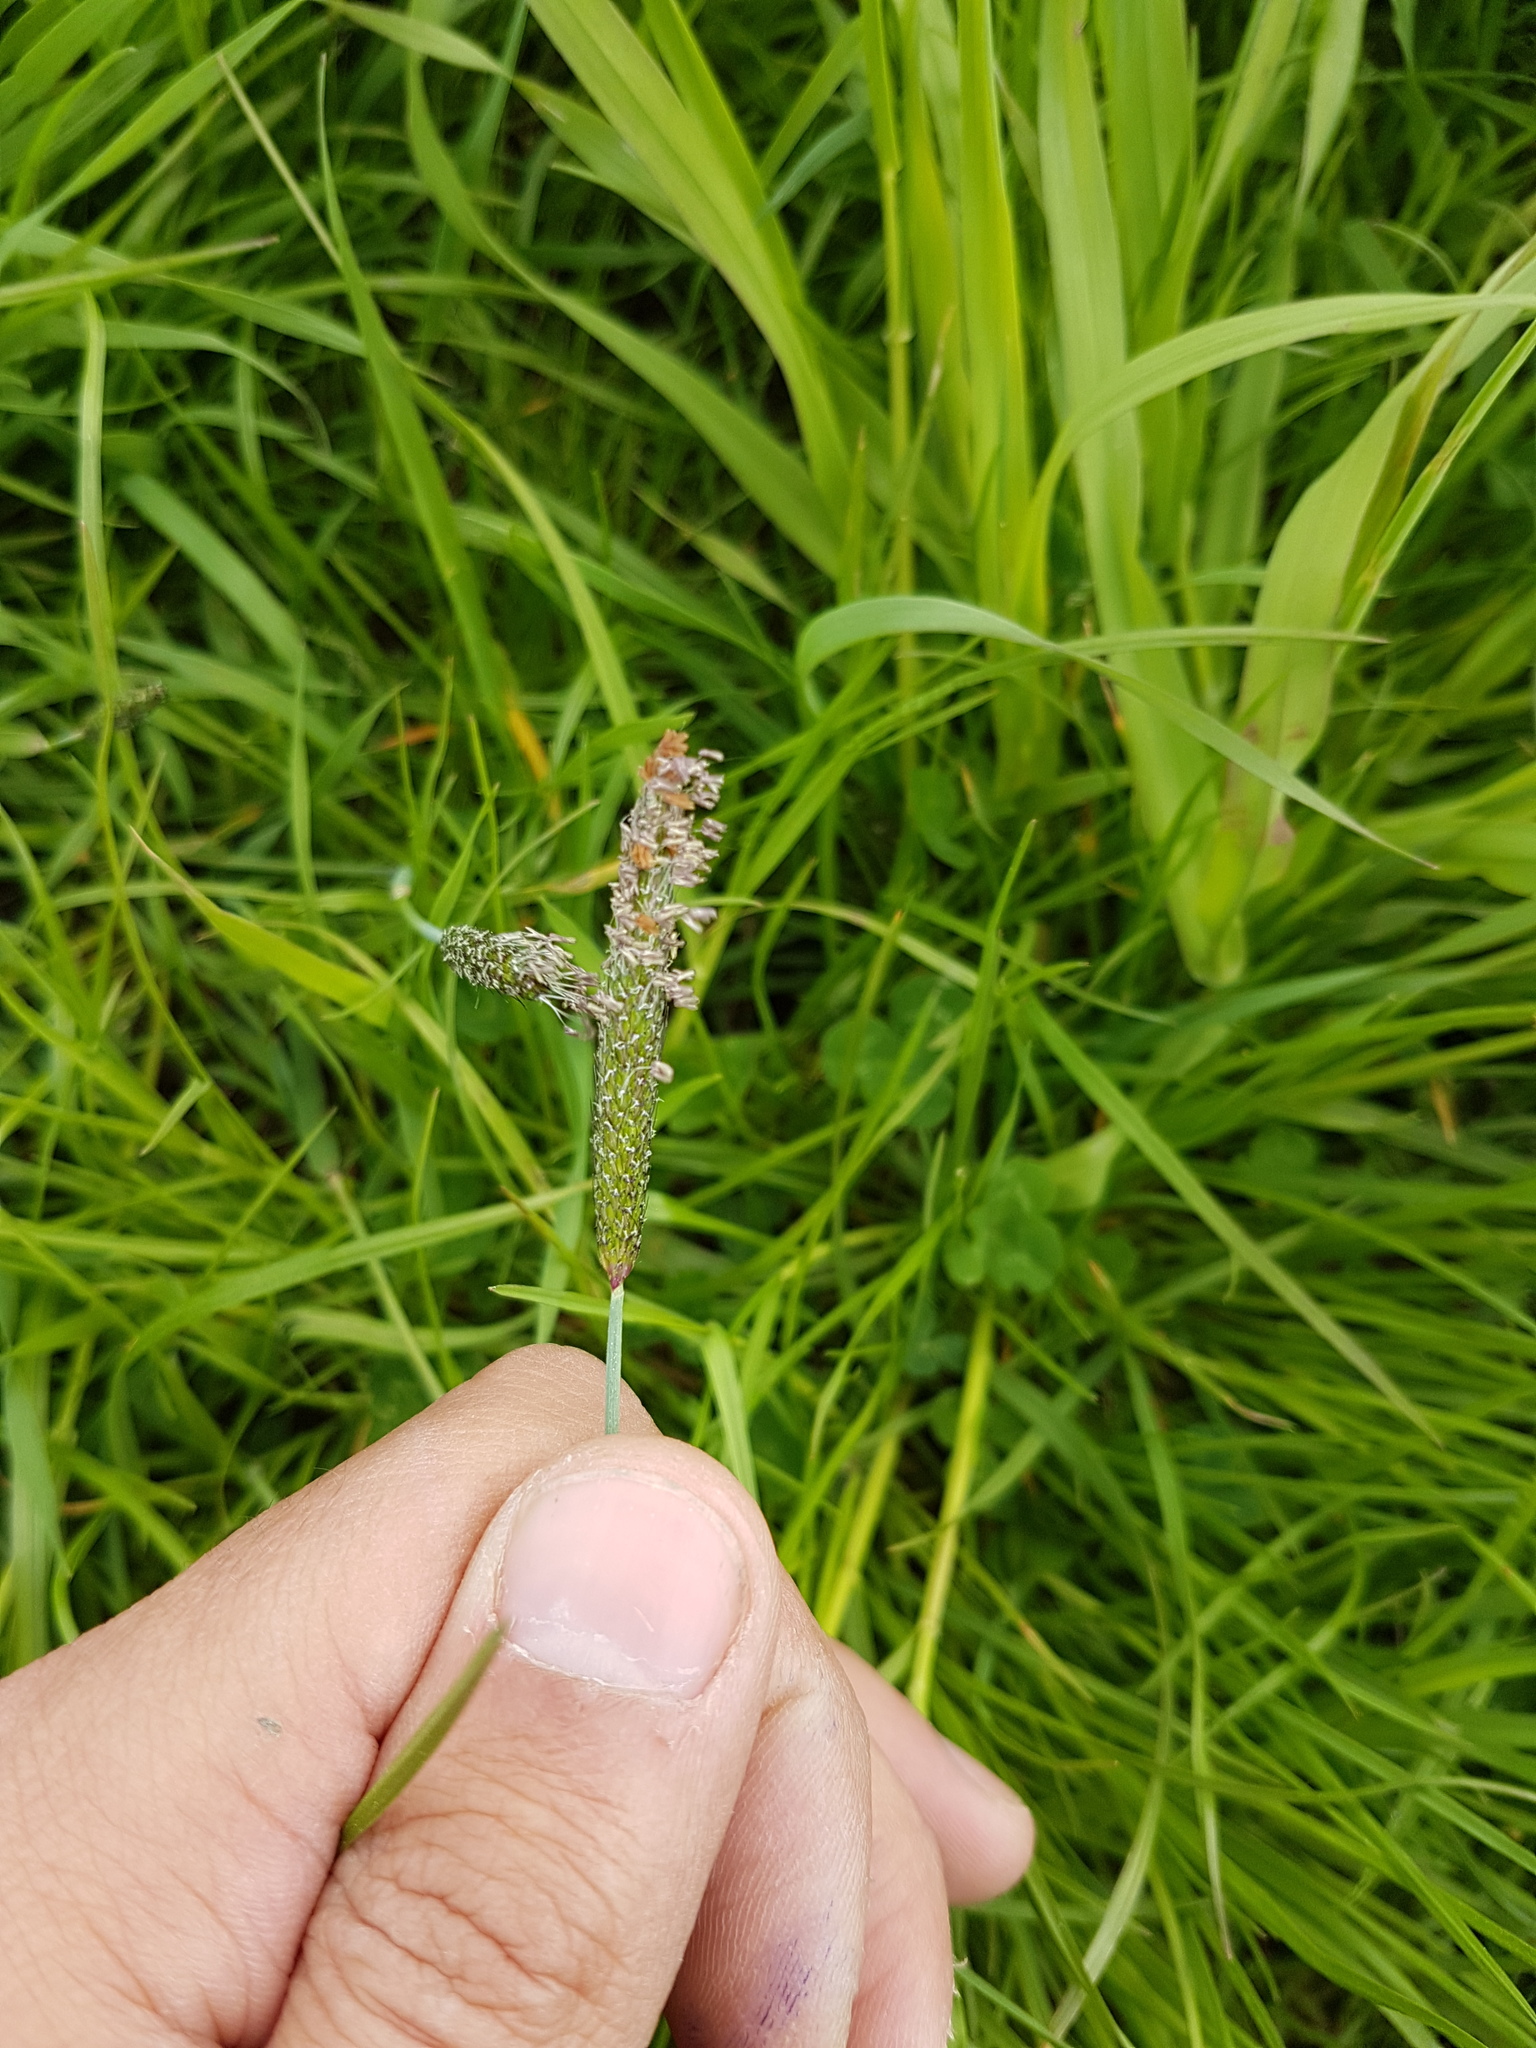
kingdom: Plantae
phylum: Tracheophyta
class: Liliopsida
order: Poales
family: Poaceae
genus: Alopecurus
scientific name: Alopecurus geniculatus
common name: Water foxtail
